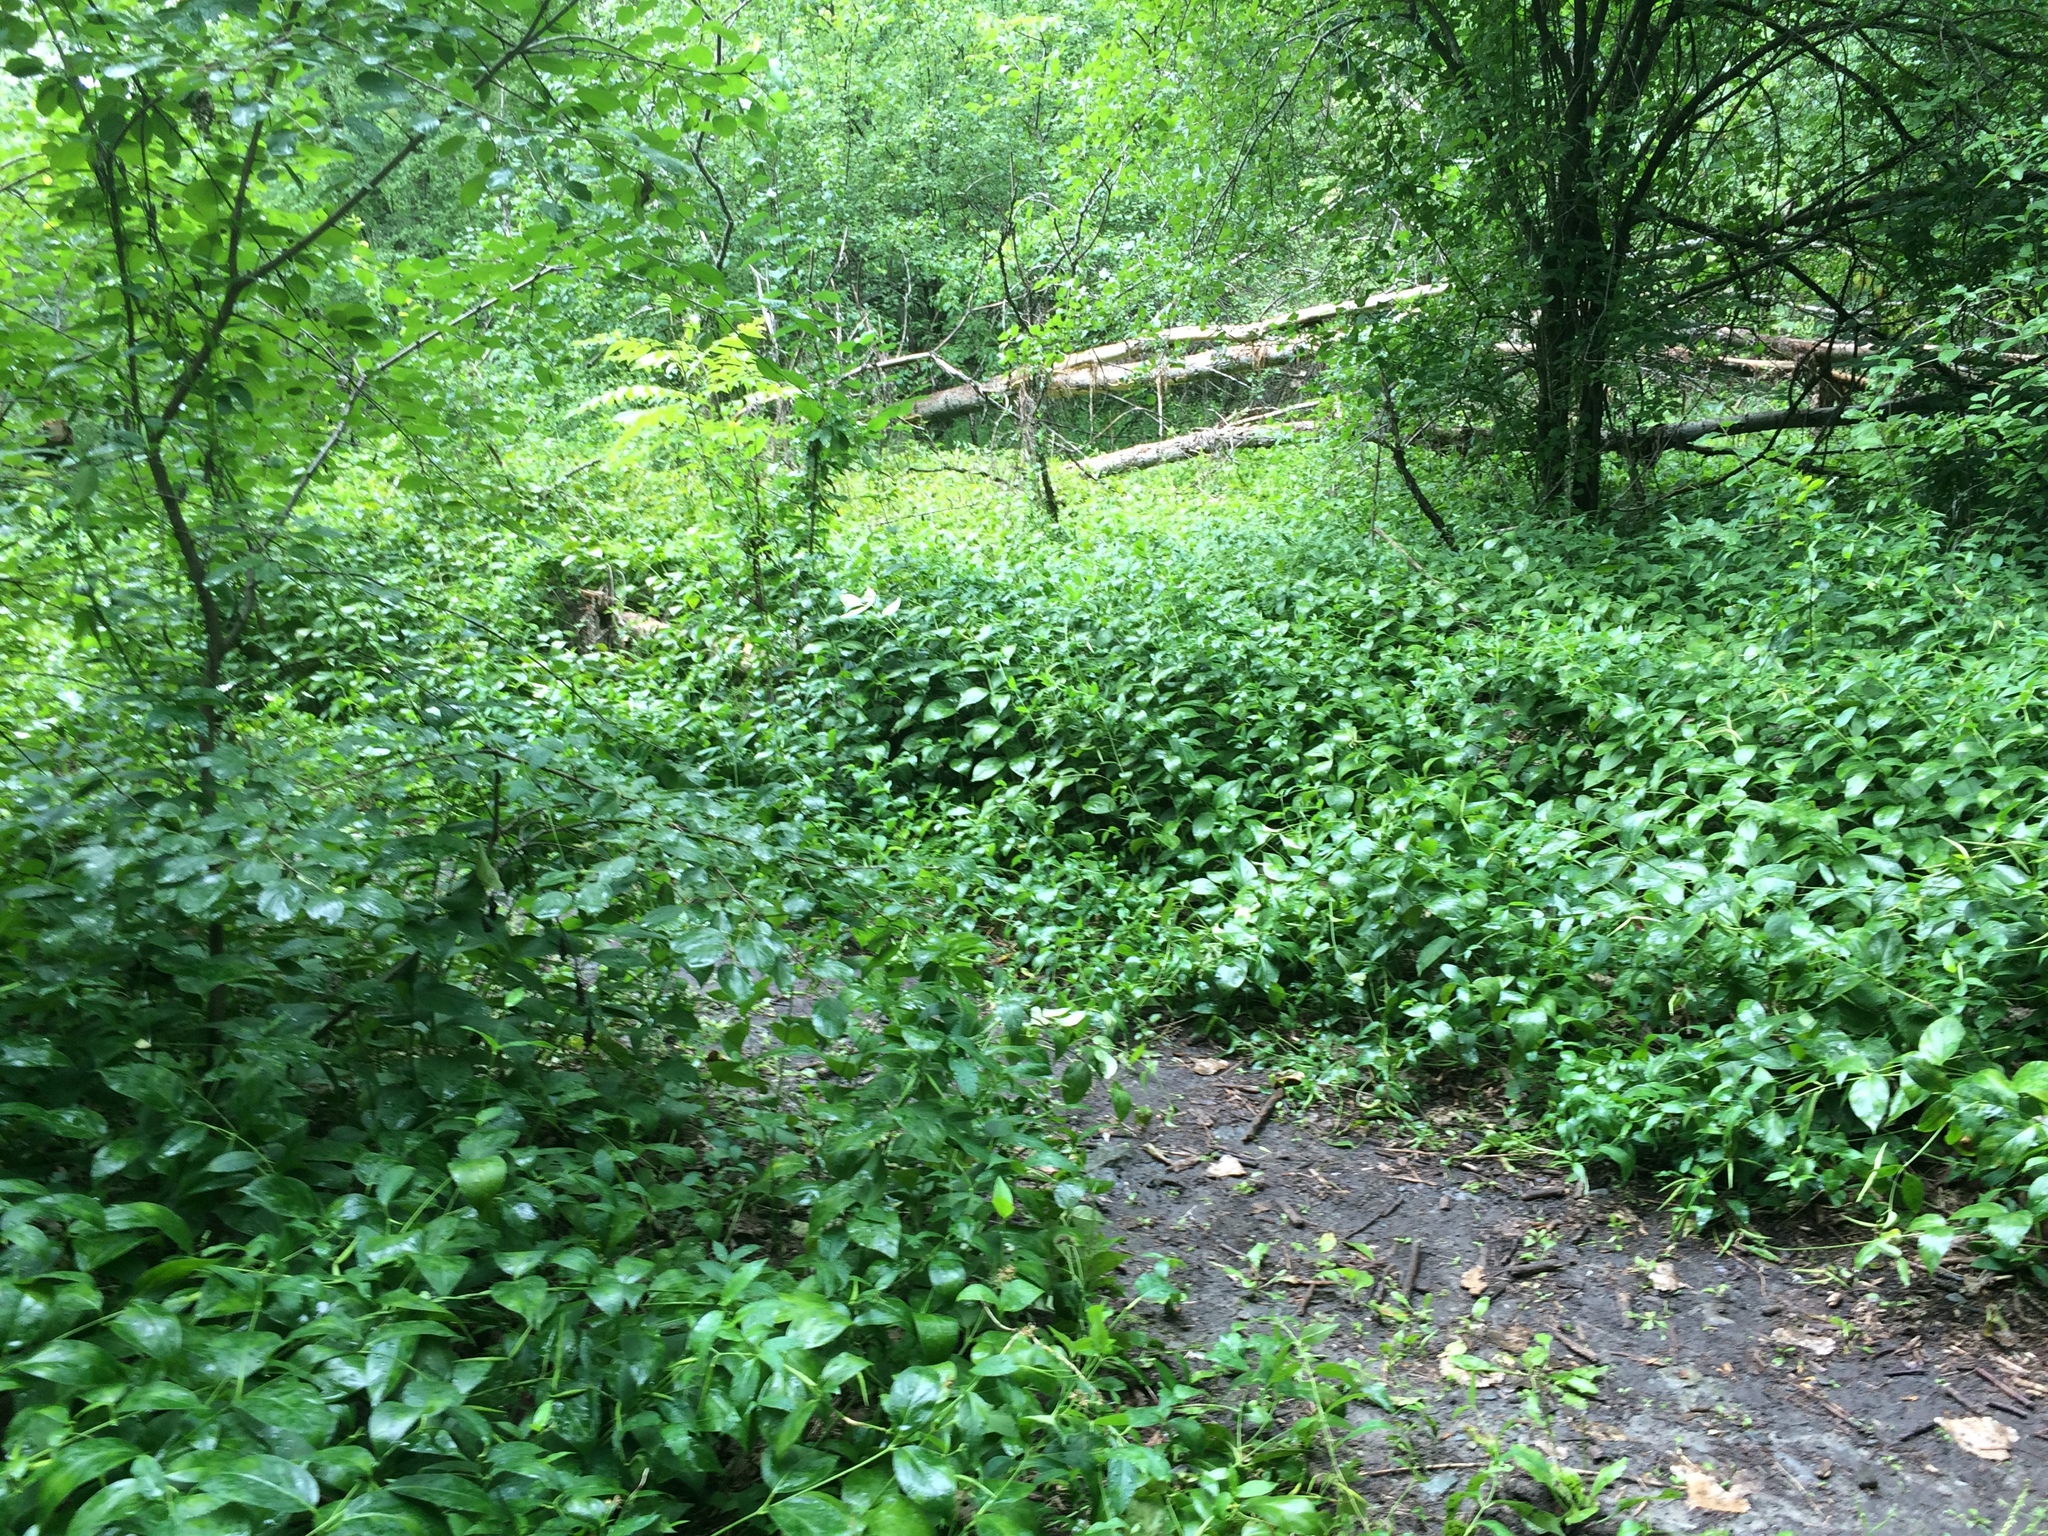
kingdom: Plantae
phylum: Tracheophyta
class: Magnoliopsida
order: Gentianales
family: Apocynaceae
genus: Vincetoxicum
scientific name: Vincetoxicum rossicum
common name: Dog-strangling vine
